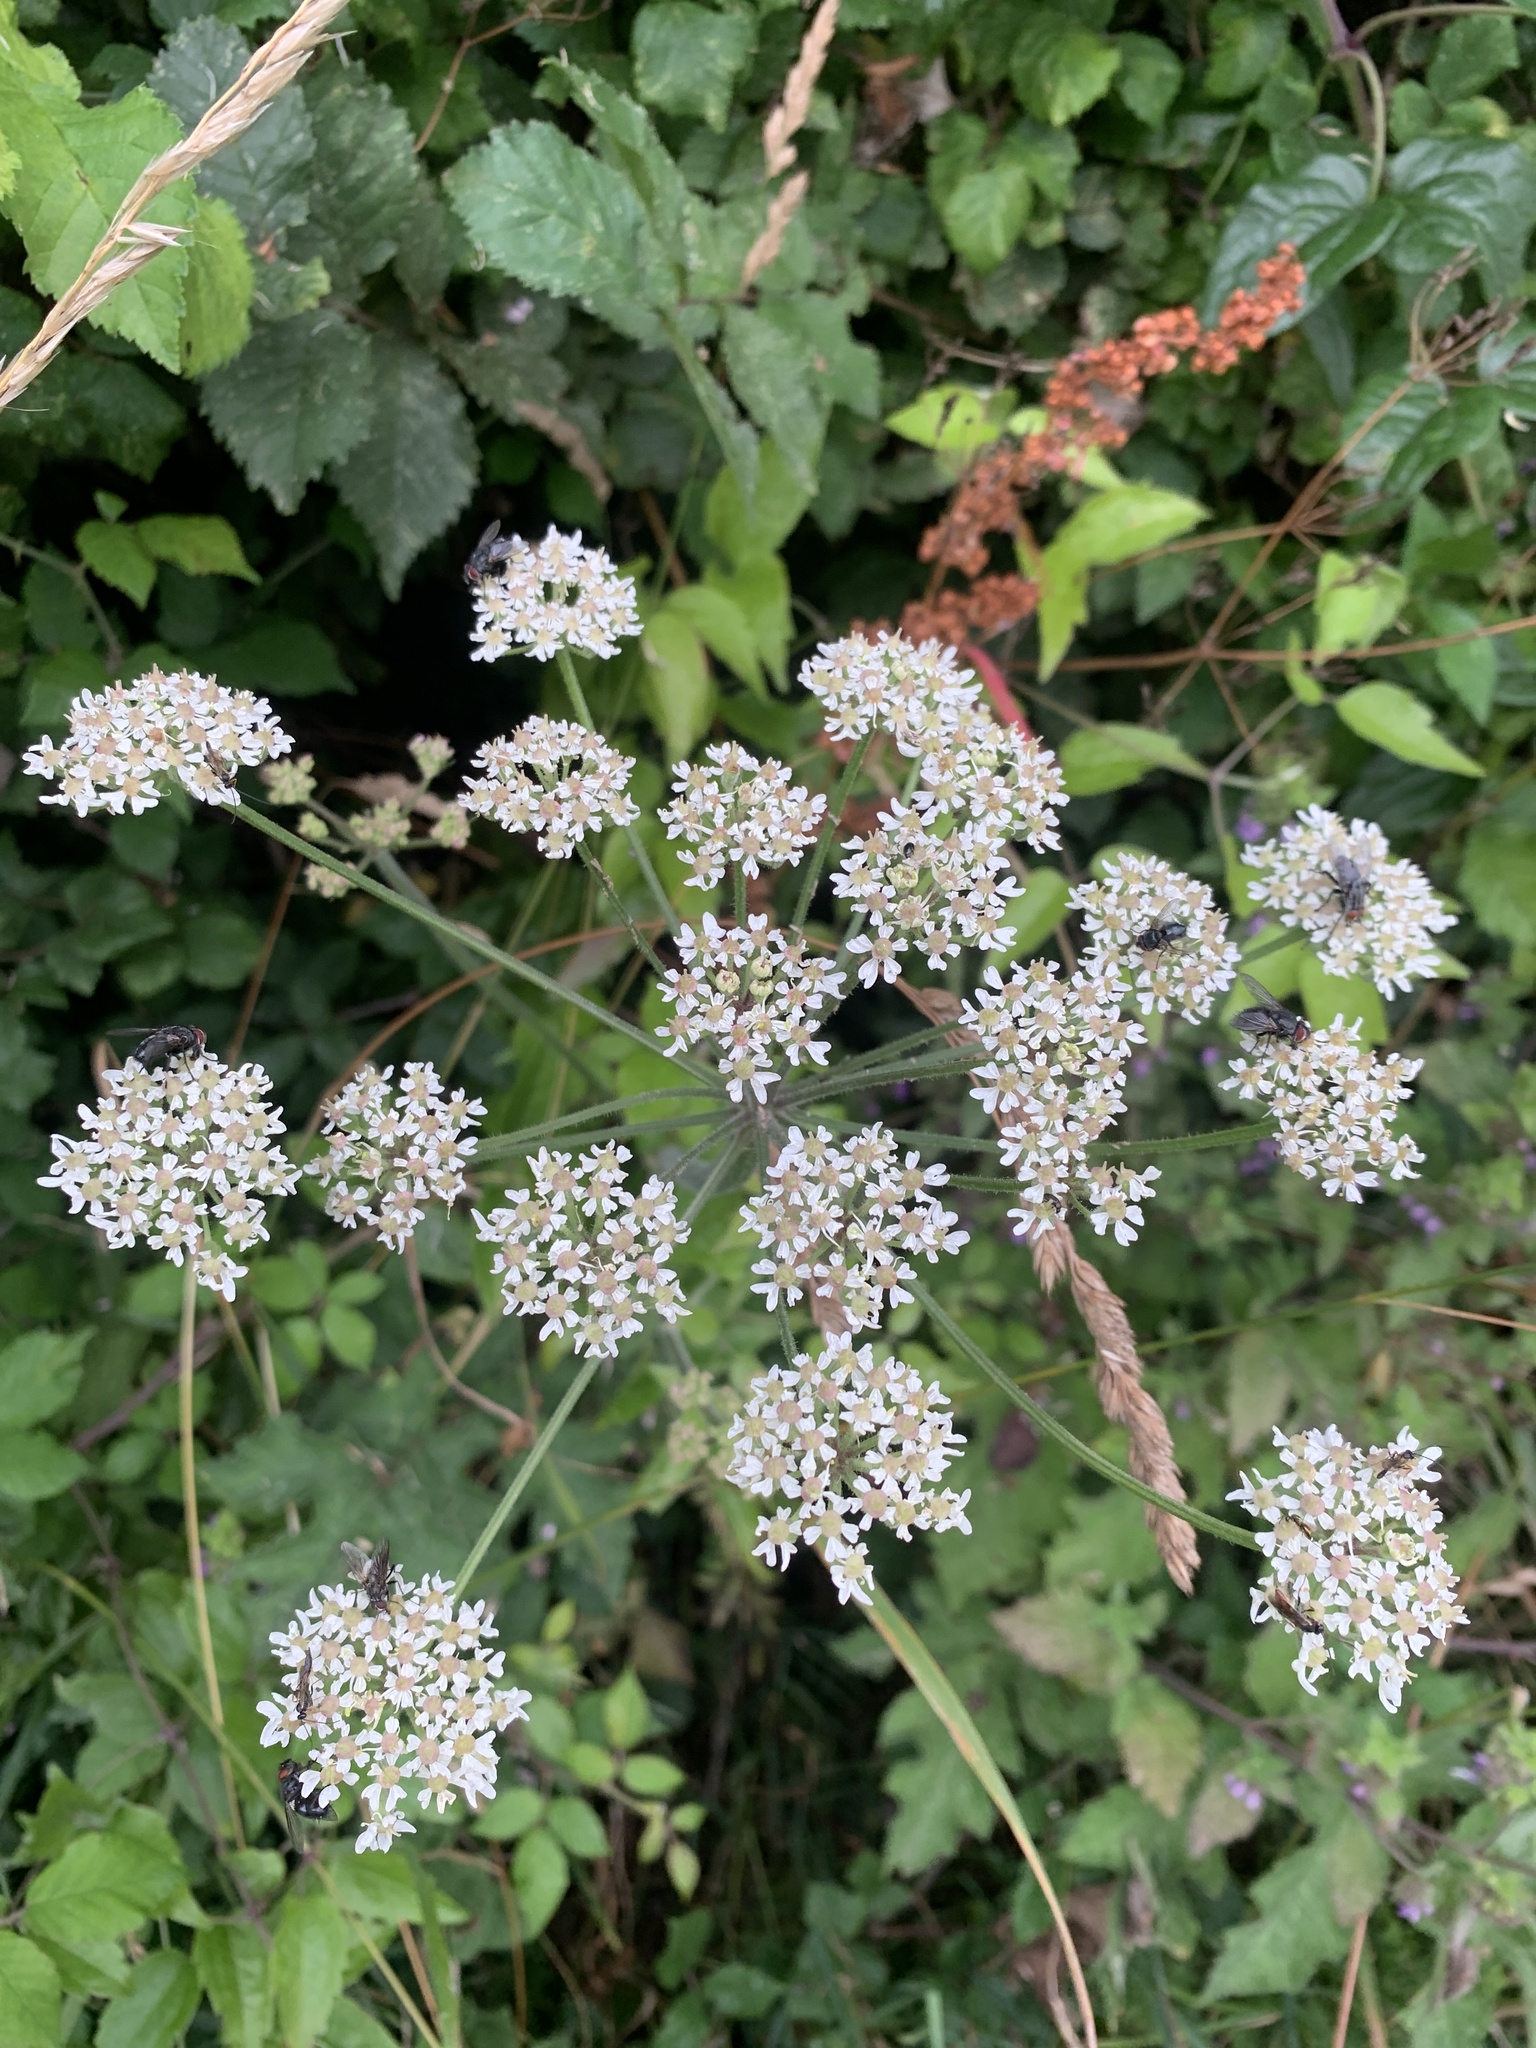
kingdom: Plantae
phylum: Tracheophyta
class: Magnoliopsida
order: Apiales
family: Apiaceae
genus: Heracleum
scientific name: Heracleum sphondylium
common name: Hogweed
